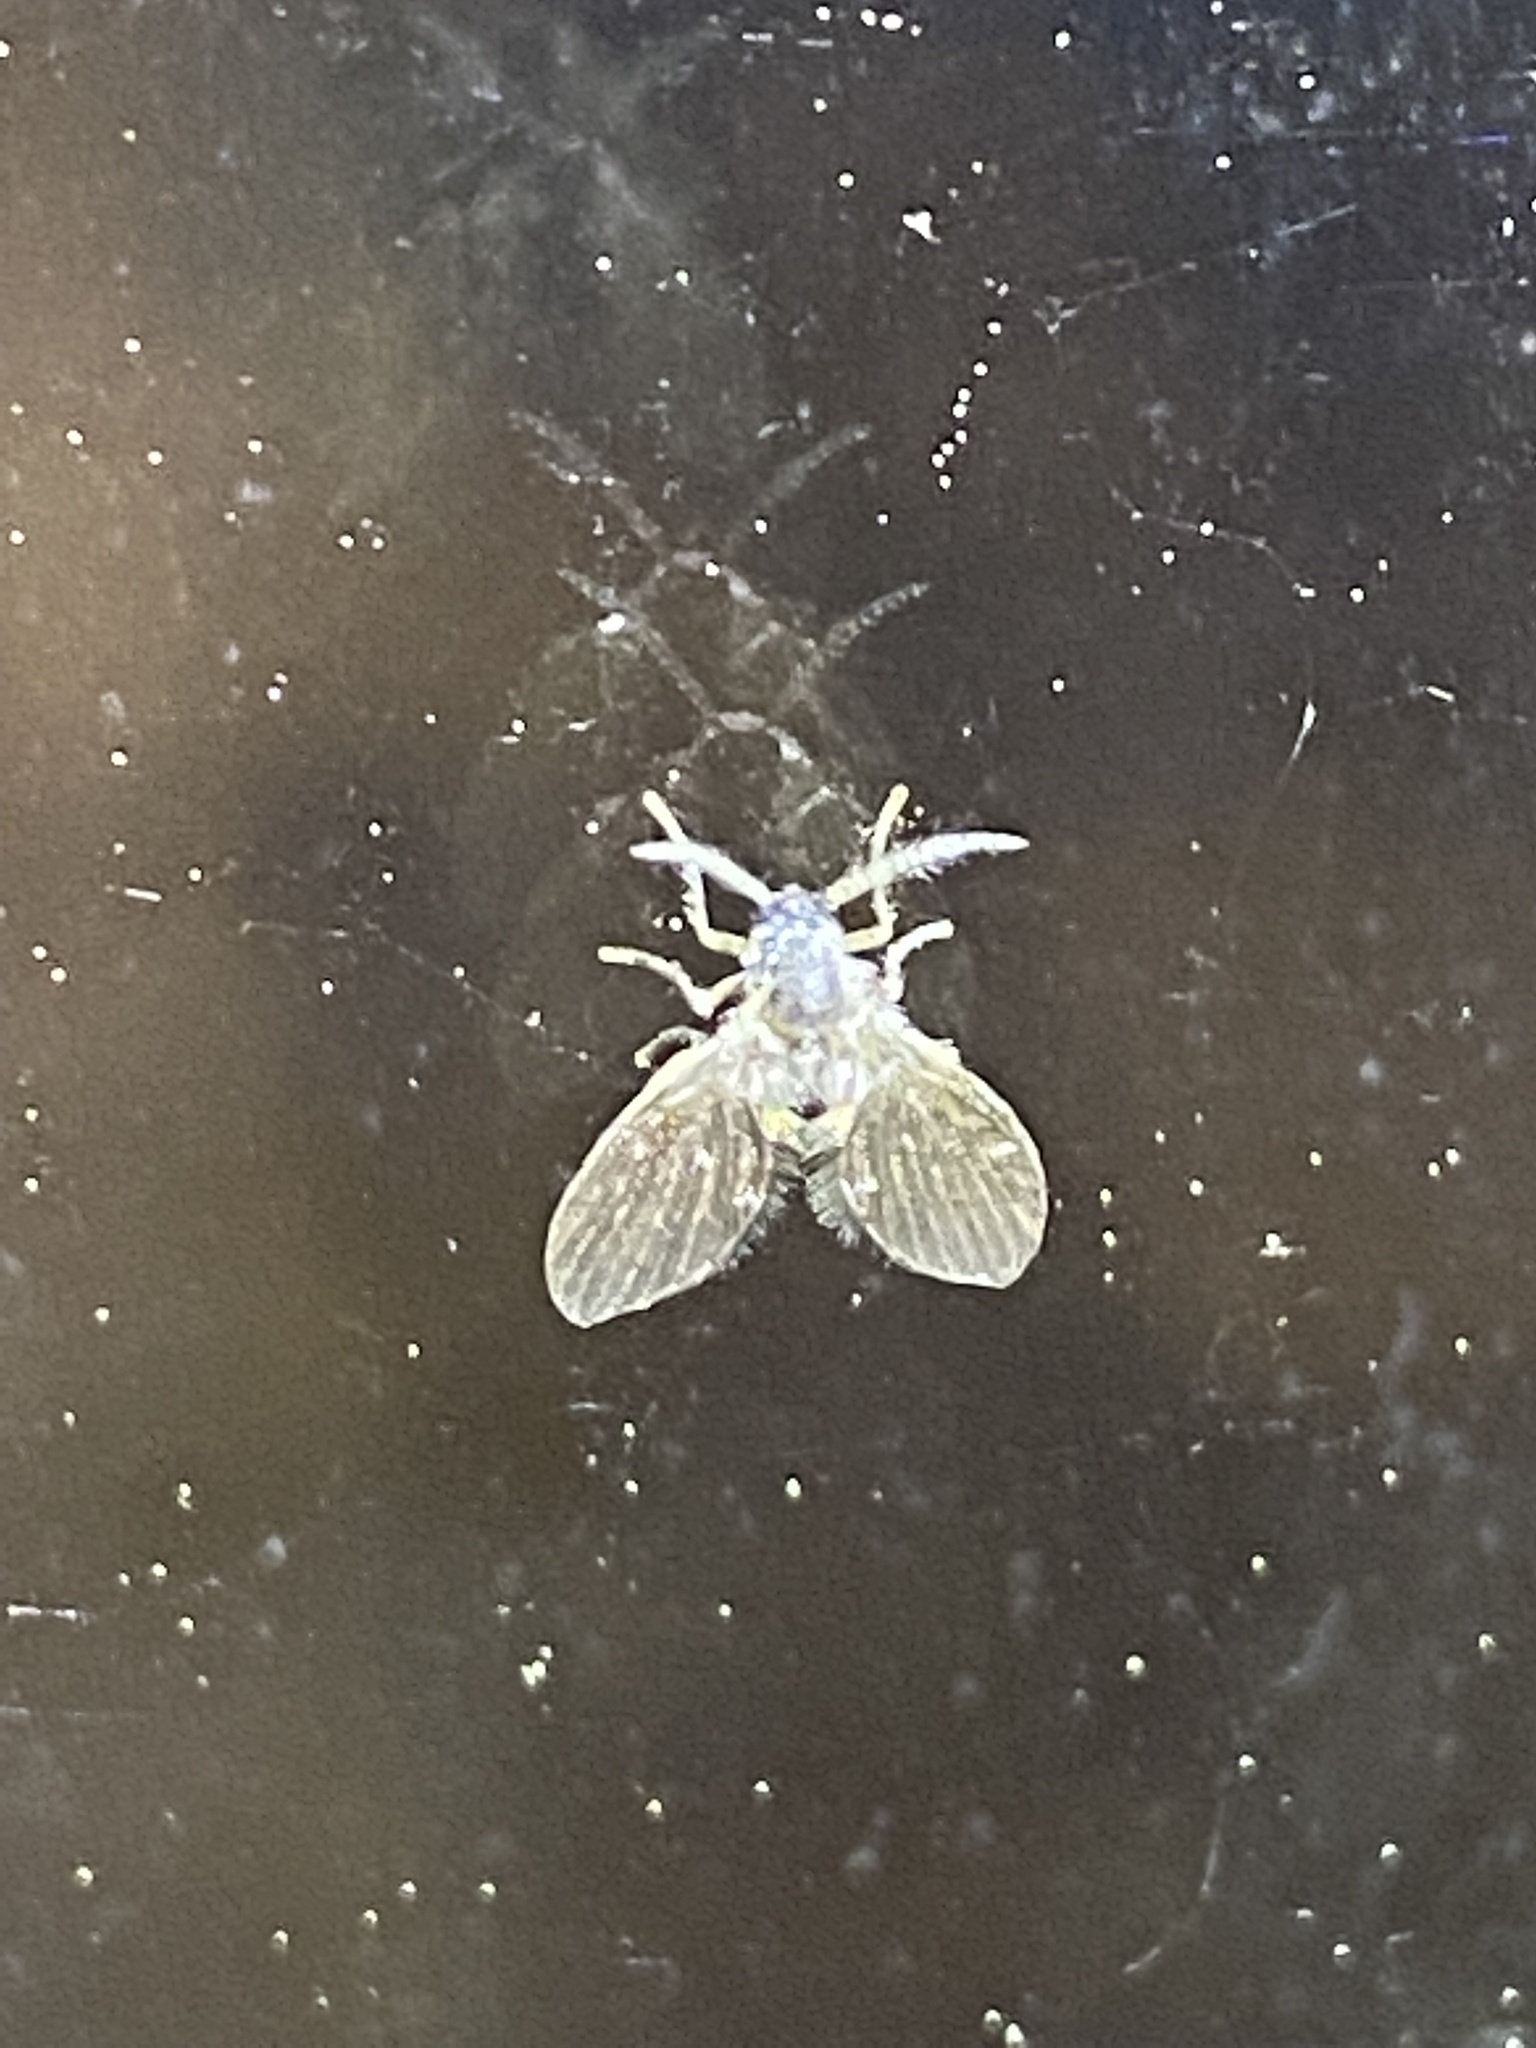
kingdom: Animalia
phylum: Arthropoda
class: Insecta
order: Diptera
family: Psychodidae
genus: Clogmia
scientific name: Clogmia albipunctatus
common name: White-spotted moth fly
